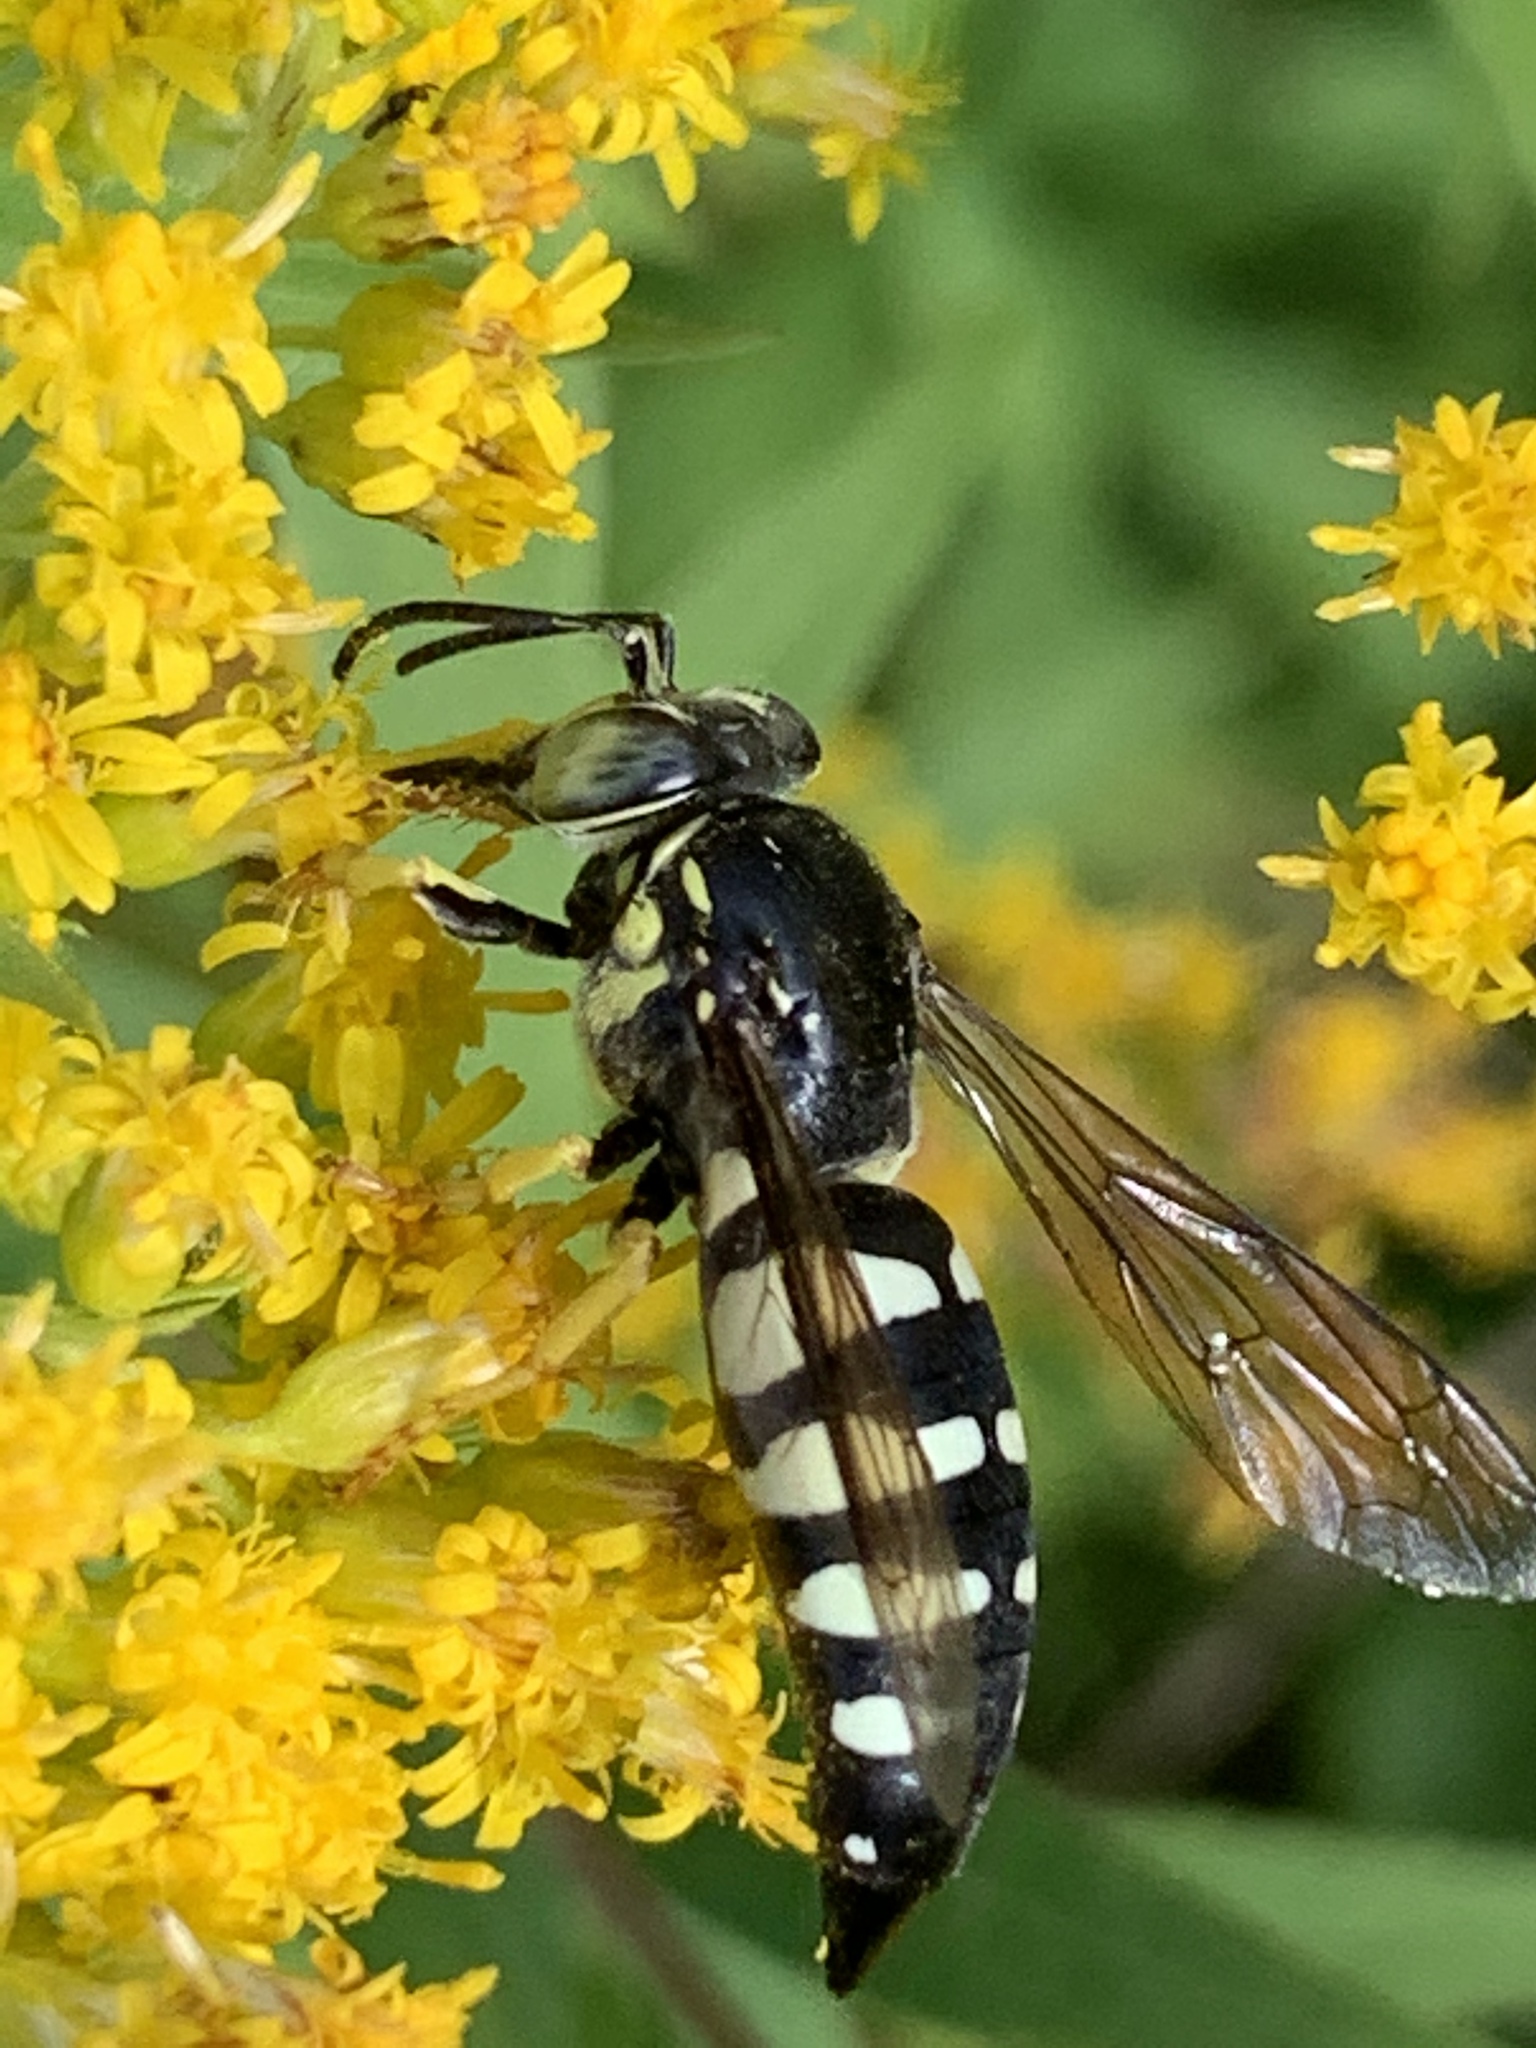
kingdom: Animalia
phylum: Arthropoda
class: Insecta
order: Hymenoptera
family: Crabronidae
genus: Bicyrtes
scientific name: Bicyrtes quadrifasciatus
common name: Four-banded stink bug hunter wasp
